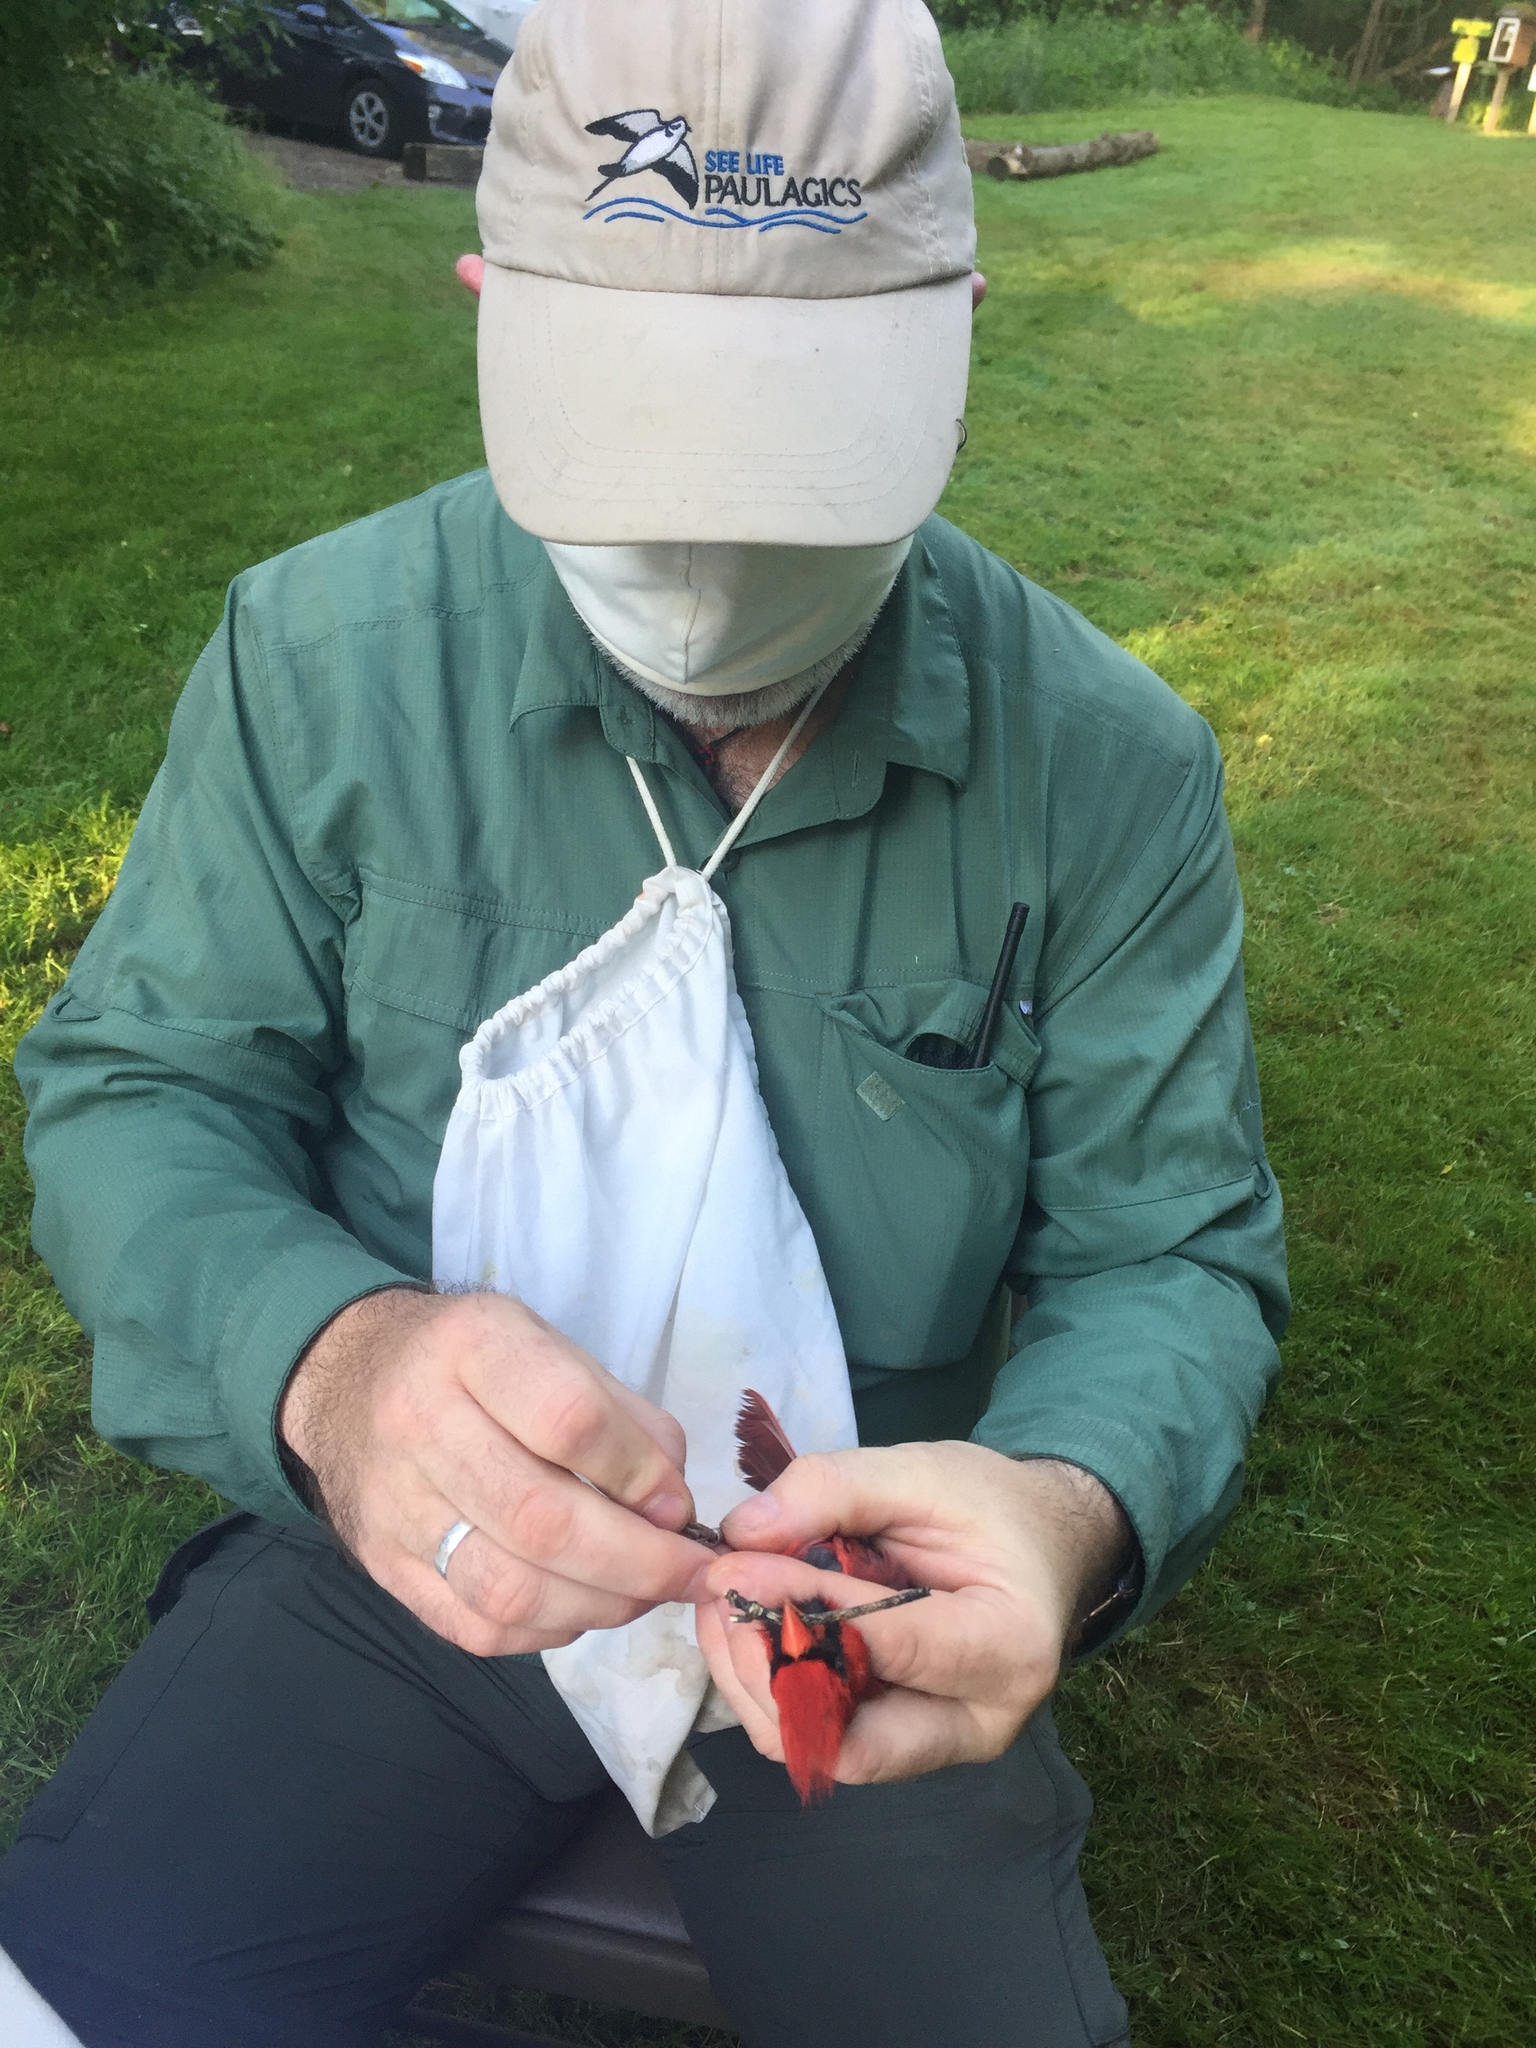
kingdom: Animalia
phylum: Chordata
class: Aves
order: Passeriformes
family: Cardinalidae
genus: Cardinalis
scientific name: Cardinalis cardinalis
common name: Northern cardinal
